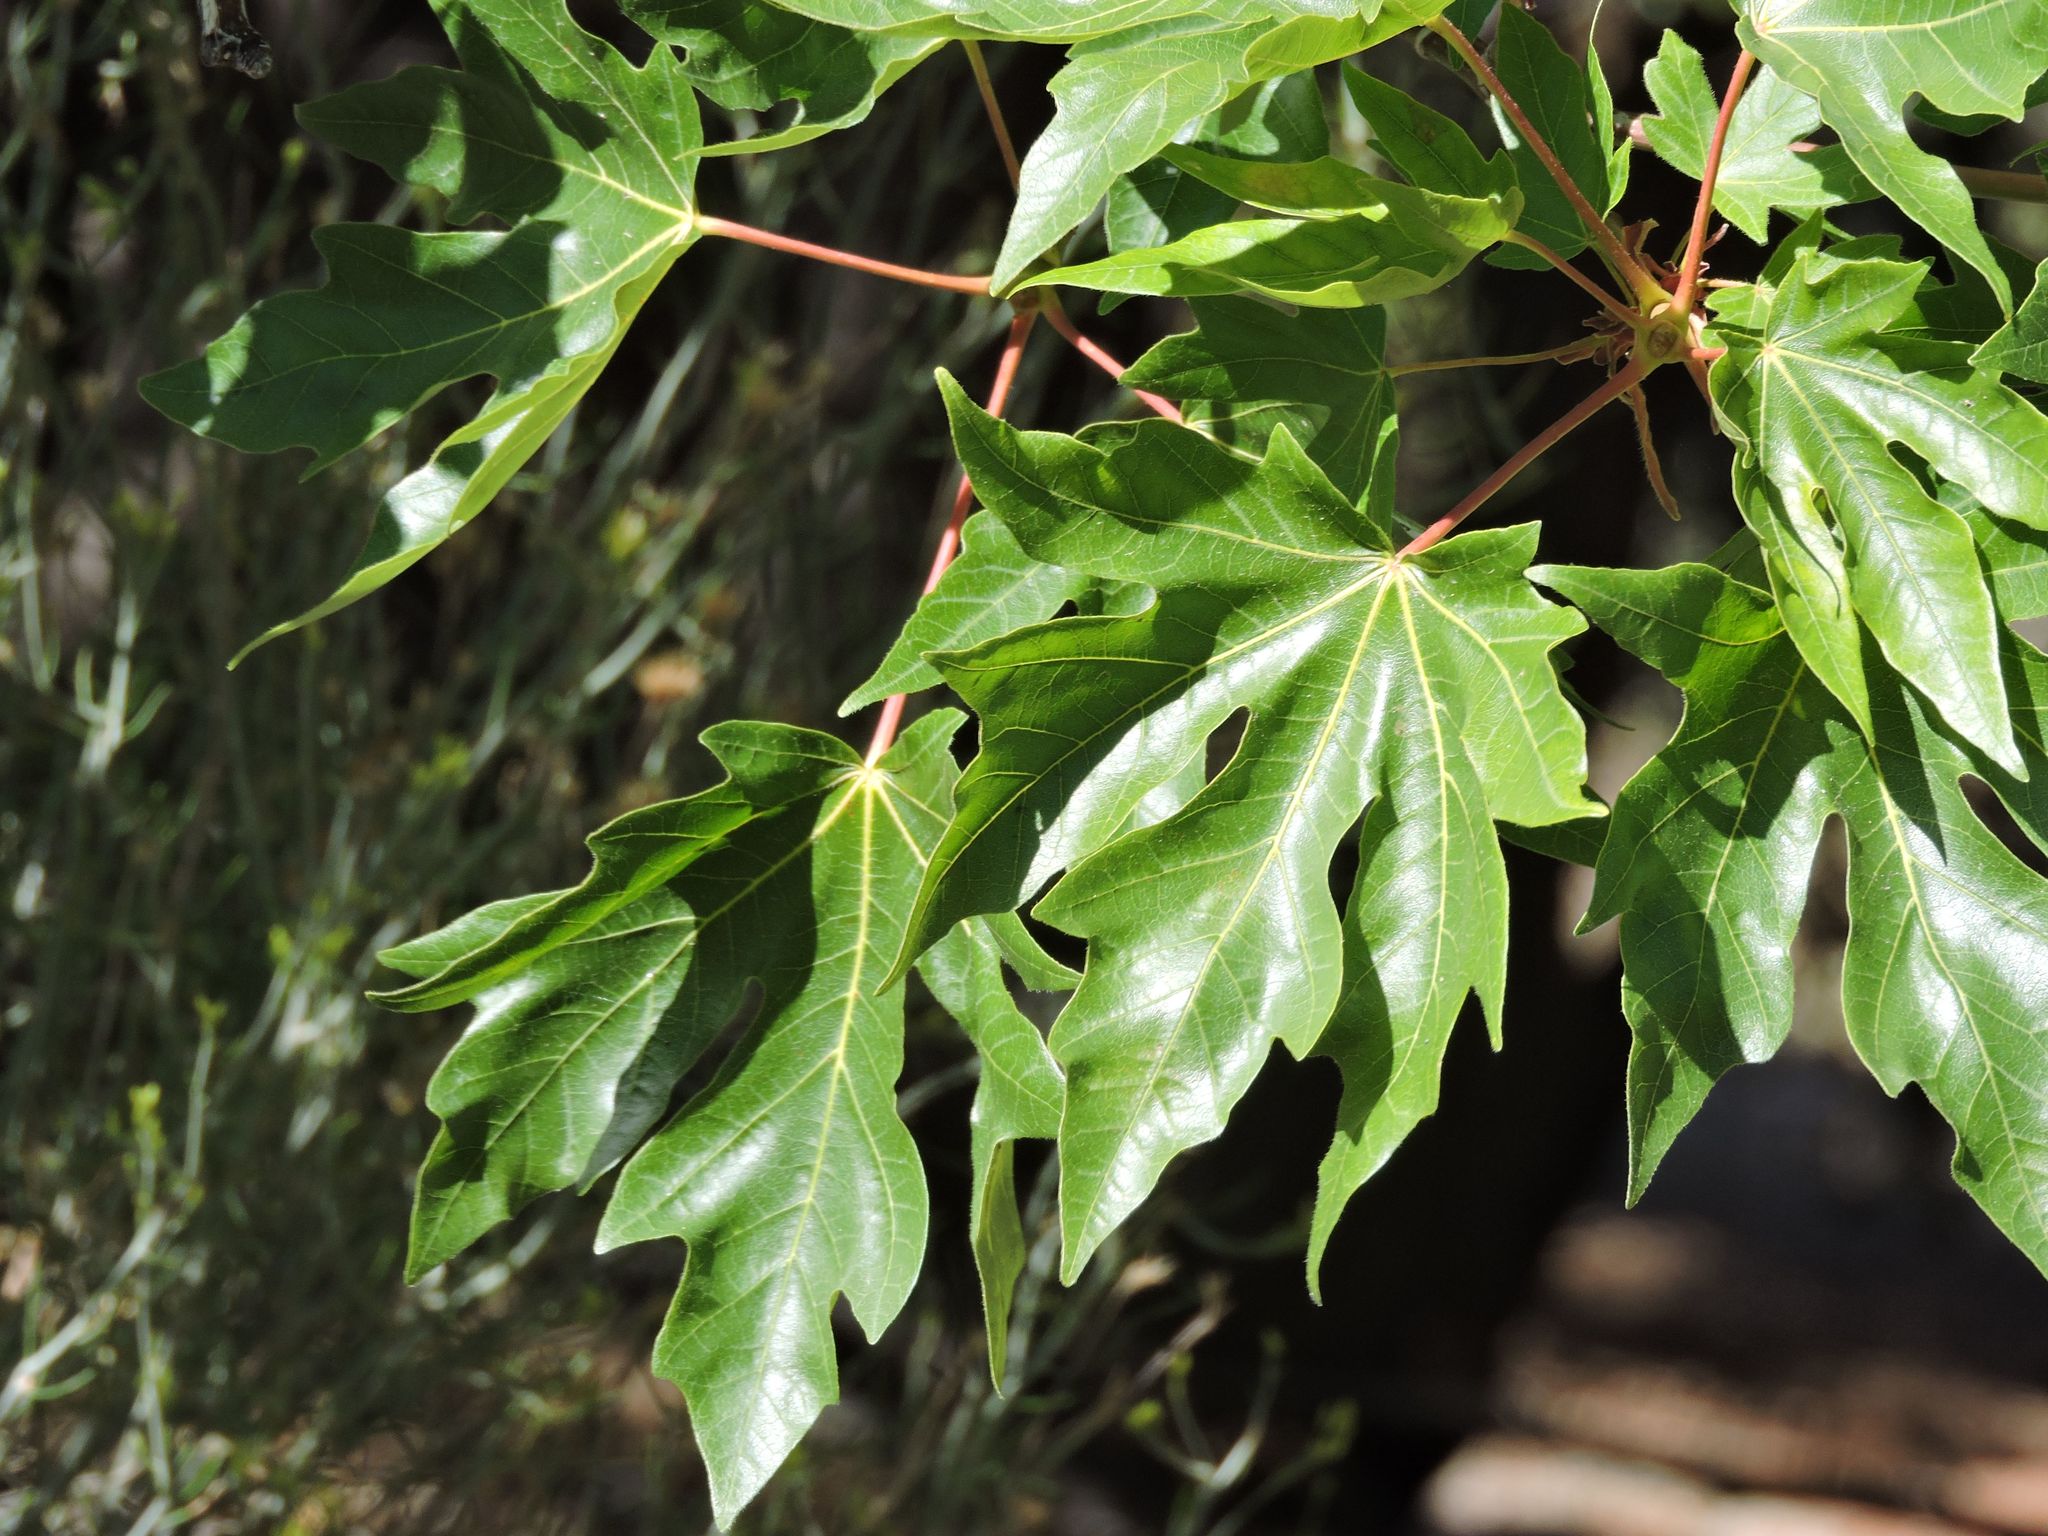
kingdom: Plantae
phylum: Tracheophyta
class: Magnoliopsida
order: Sapindales
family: Sapindaceae
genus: Acer
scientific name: Acer macrophyllum
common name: Oregon maple
